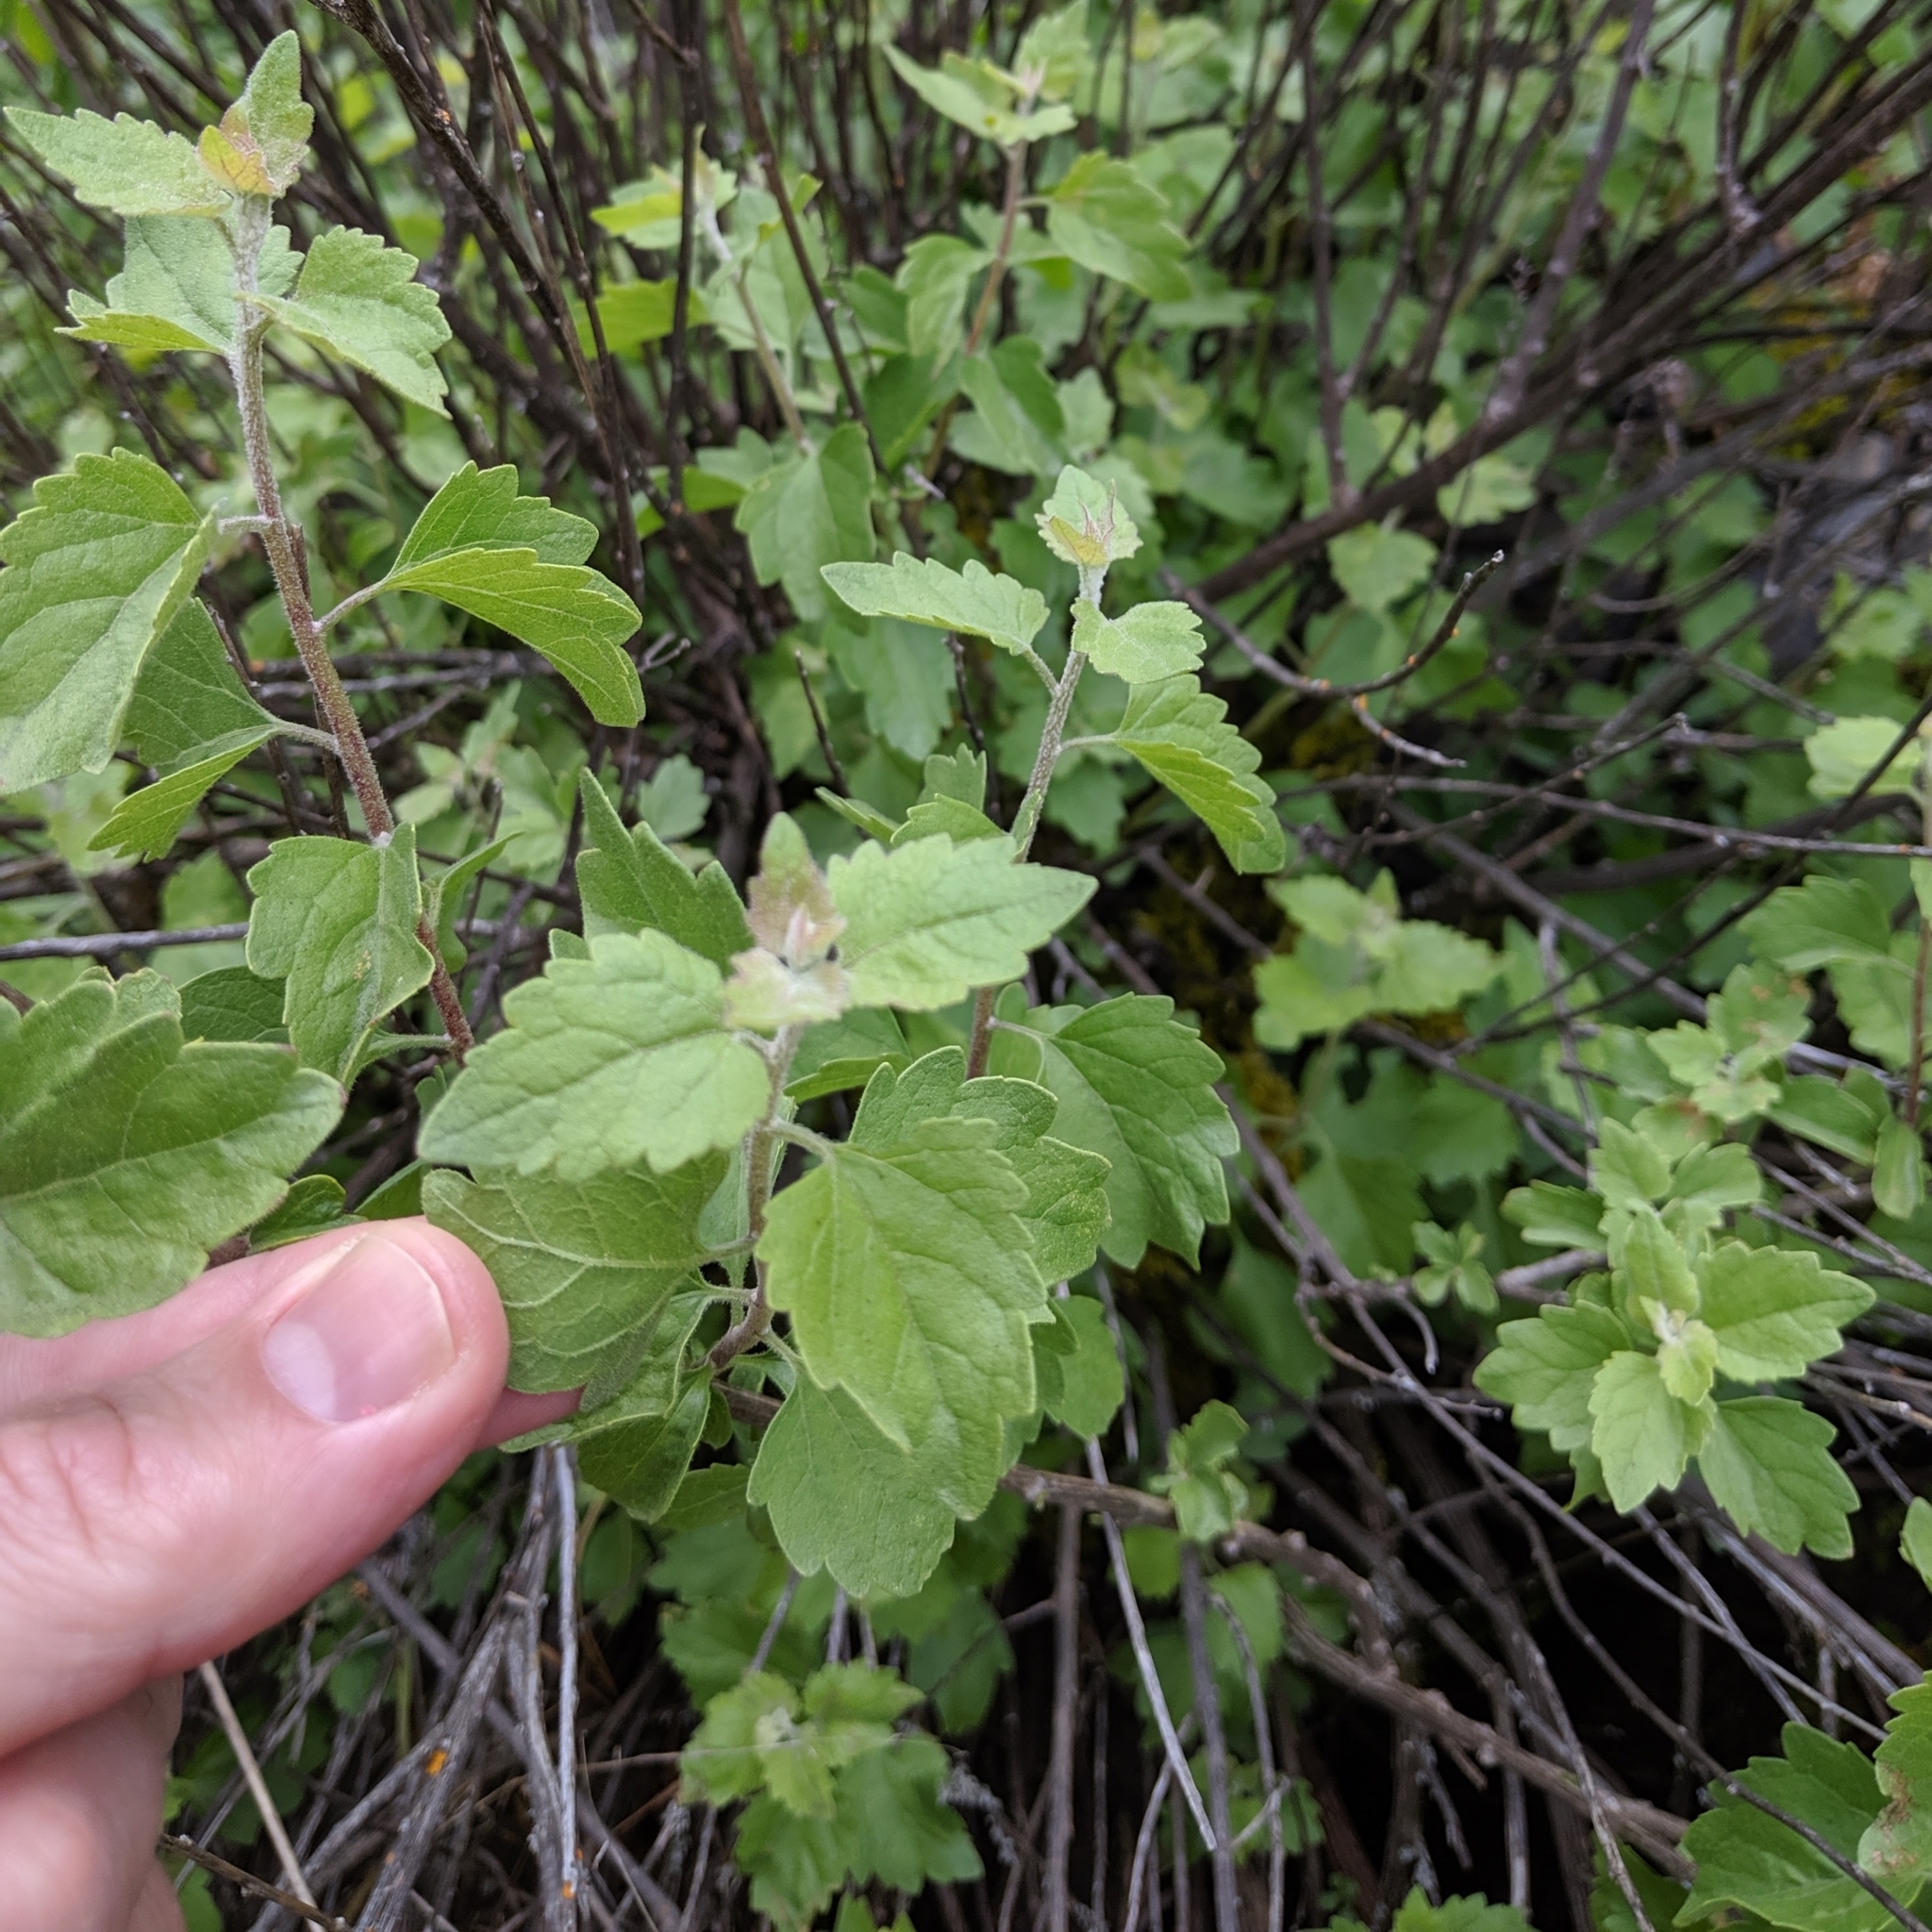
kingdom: Plantae
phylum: Tracheophyta
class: Magnoliopsida
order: Asterales
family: Asteraceae
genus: Brickellia
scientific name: Brickellia californica
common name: California brickellbush
